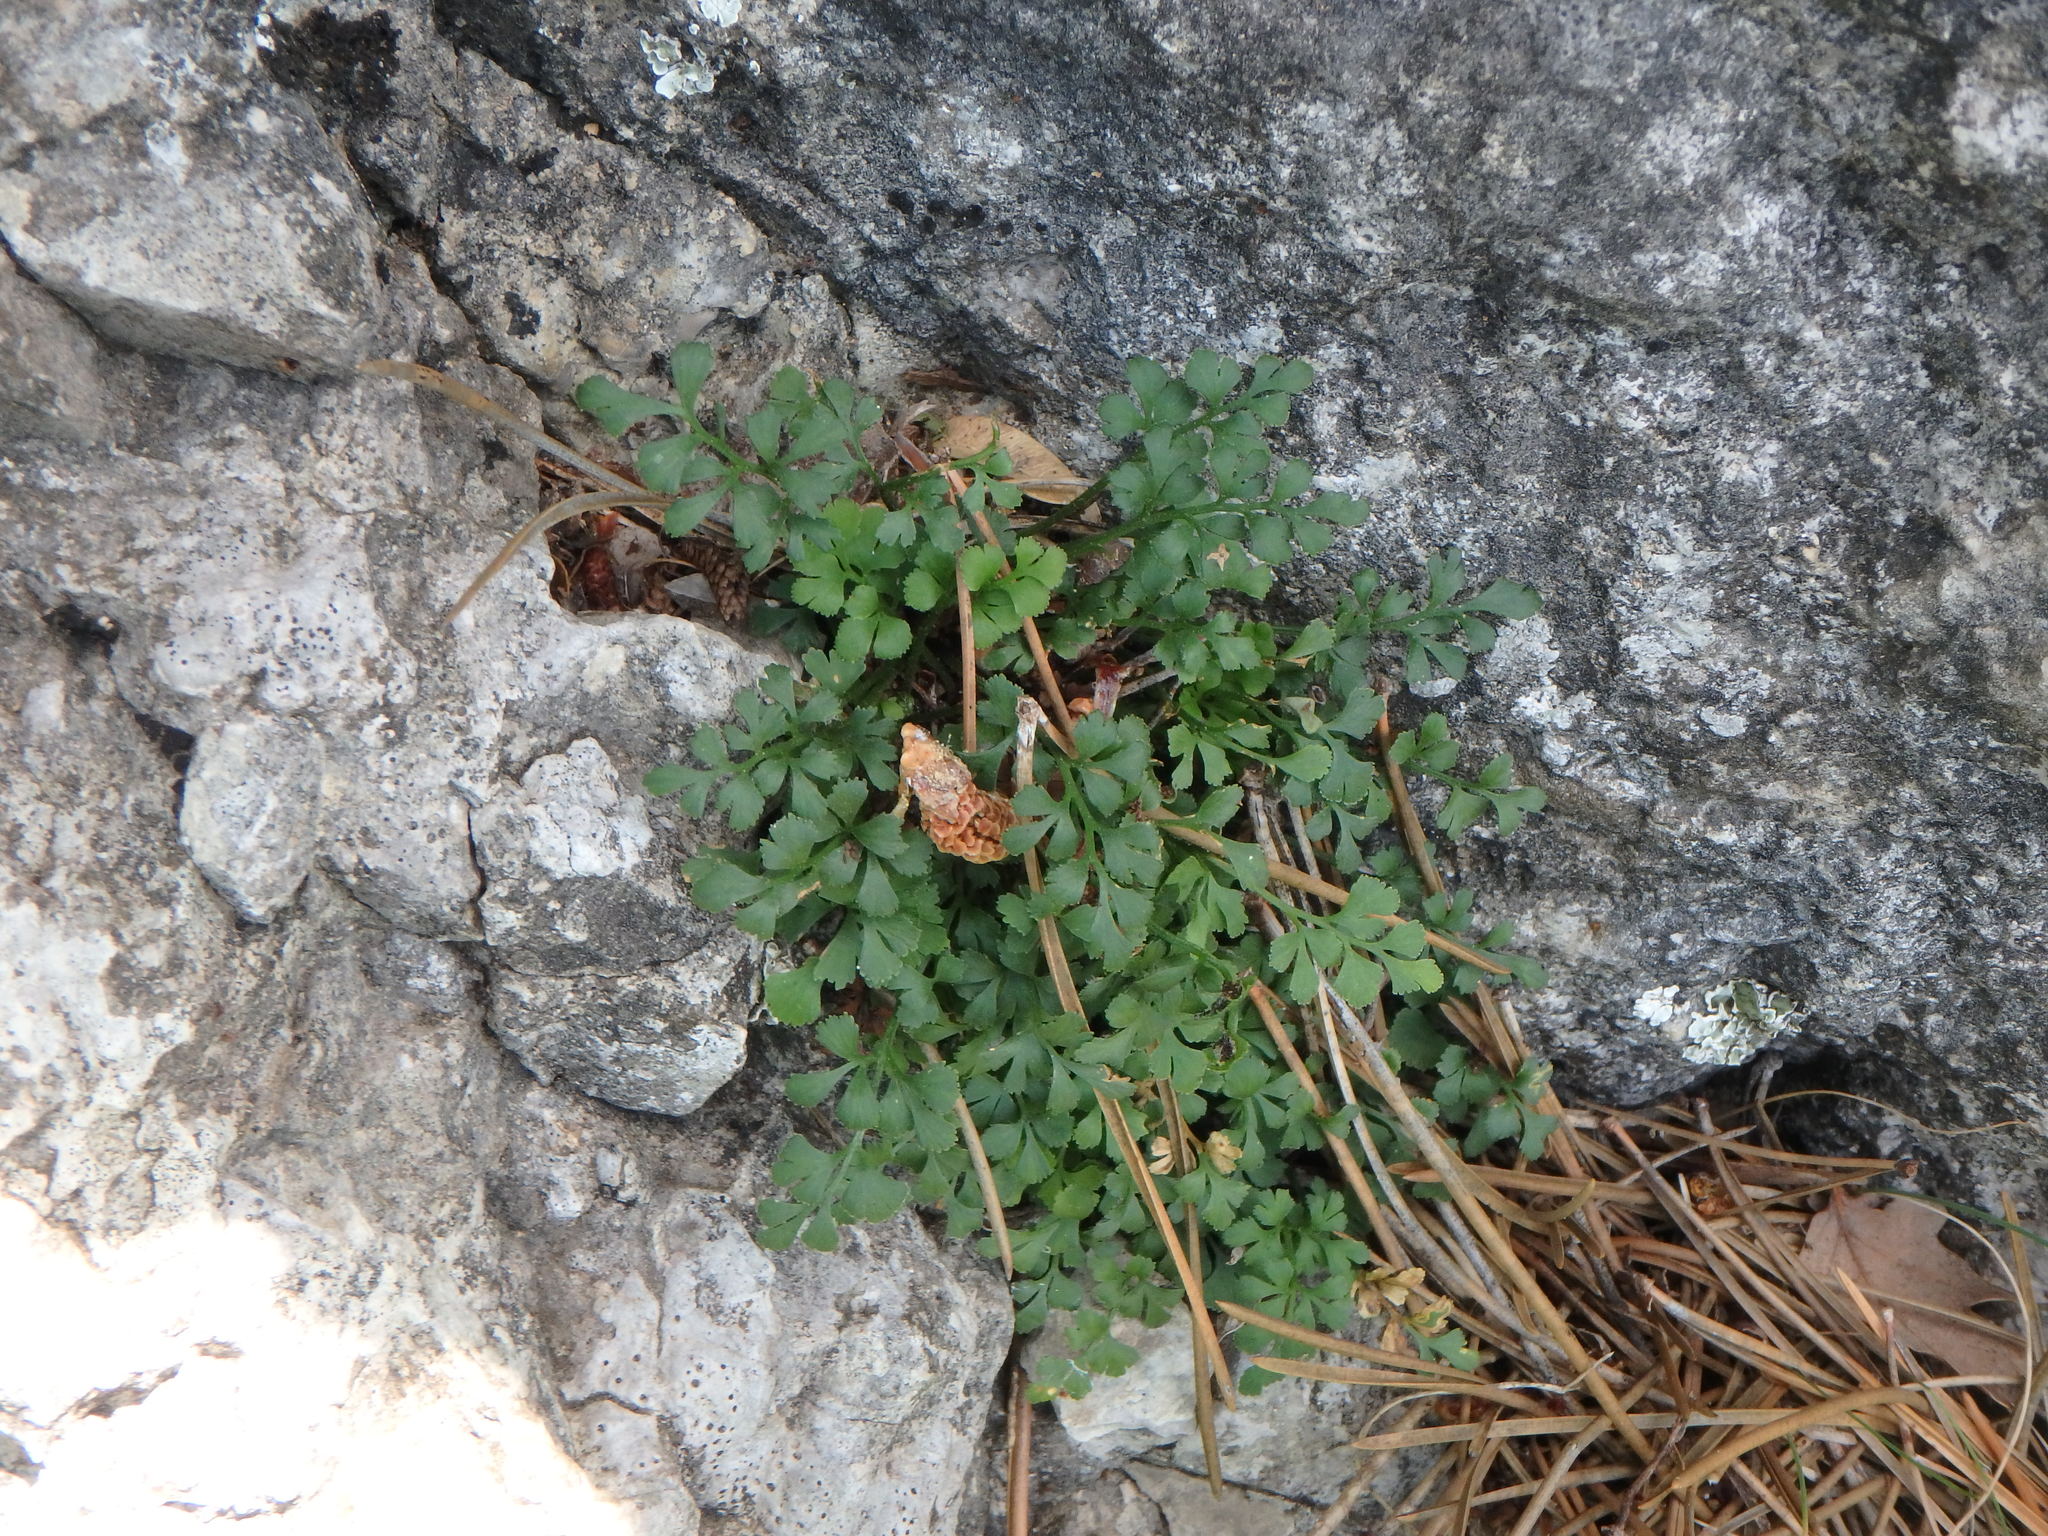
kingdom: Plantae
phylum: Tracheophyta
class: Polypodiopsida
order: Polypodiales
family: Aspleniaceae
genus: Asplenium
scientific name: Asplenium ruta-muraria
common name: Wall-rue
